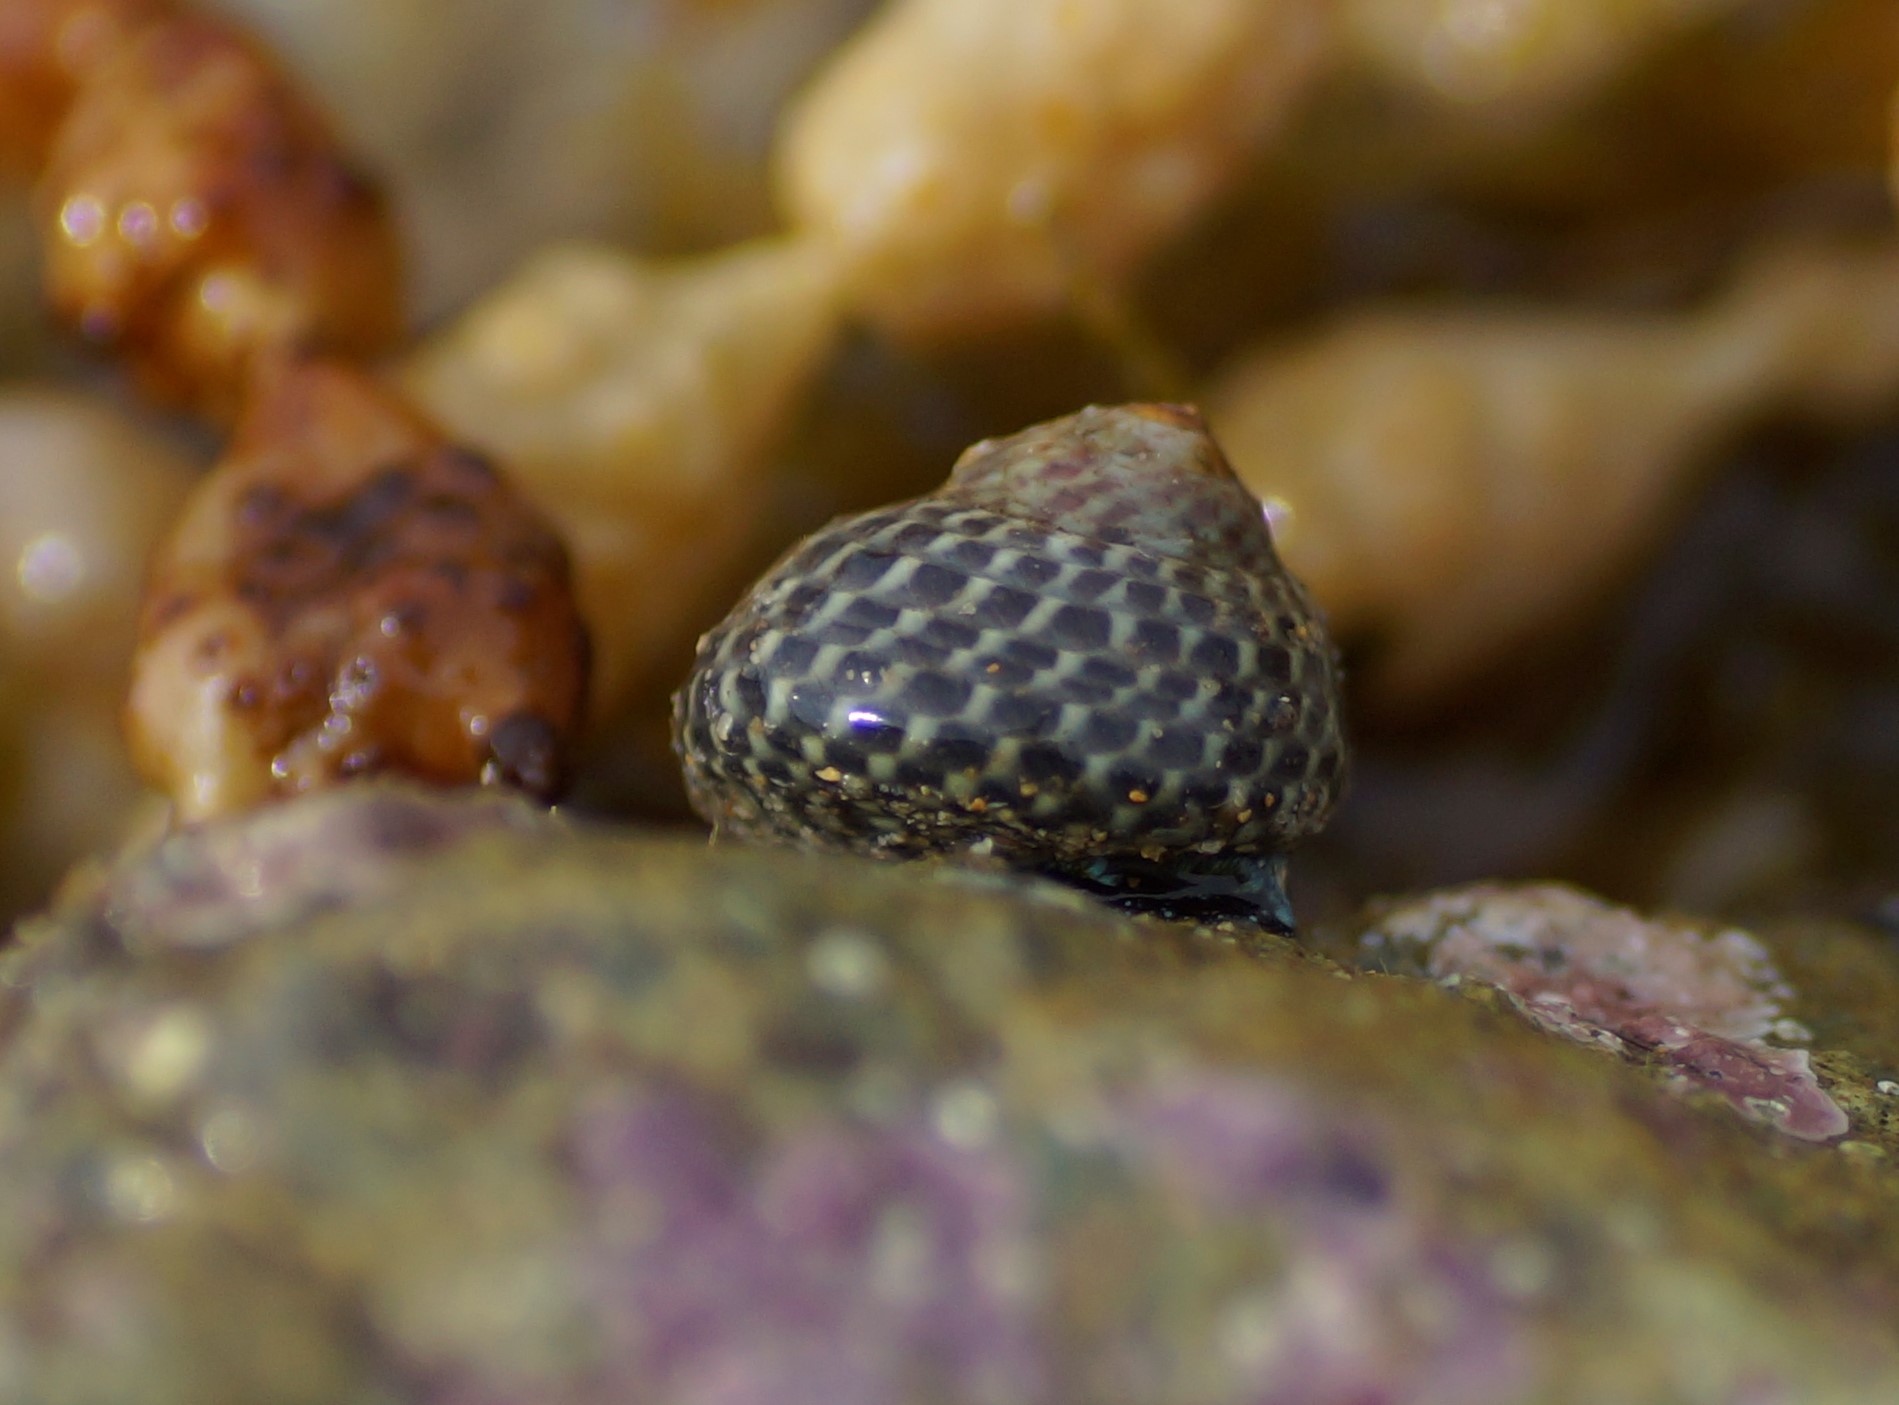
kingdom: Animalia
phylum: Mollusca
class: Gastropoda
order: Trochida
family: Trochidae
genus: Diloma
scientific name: Diloma concameratum
